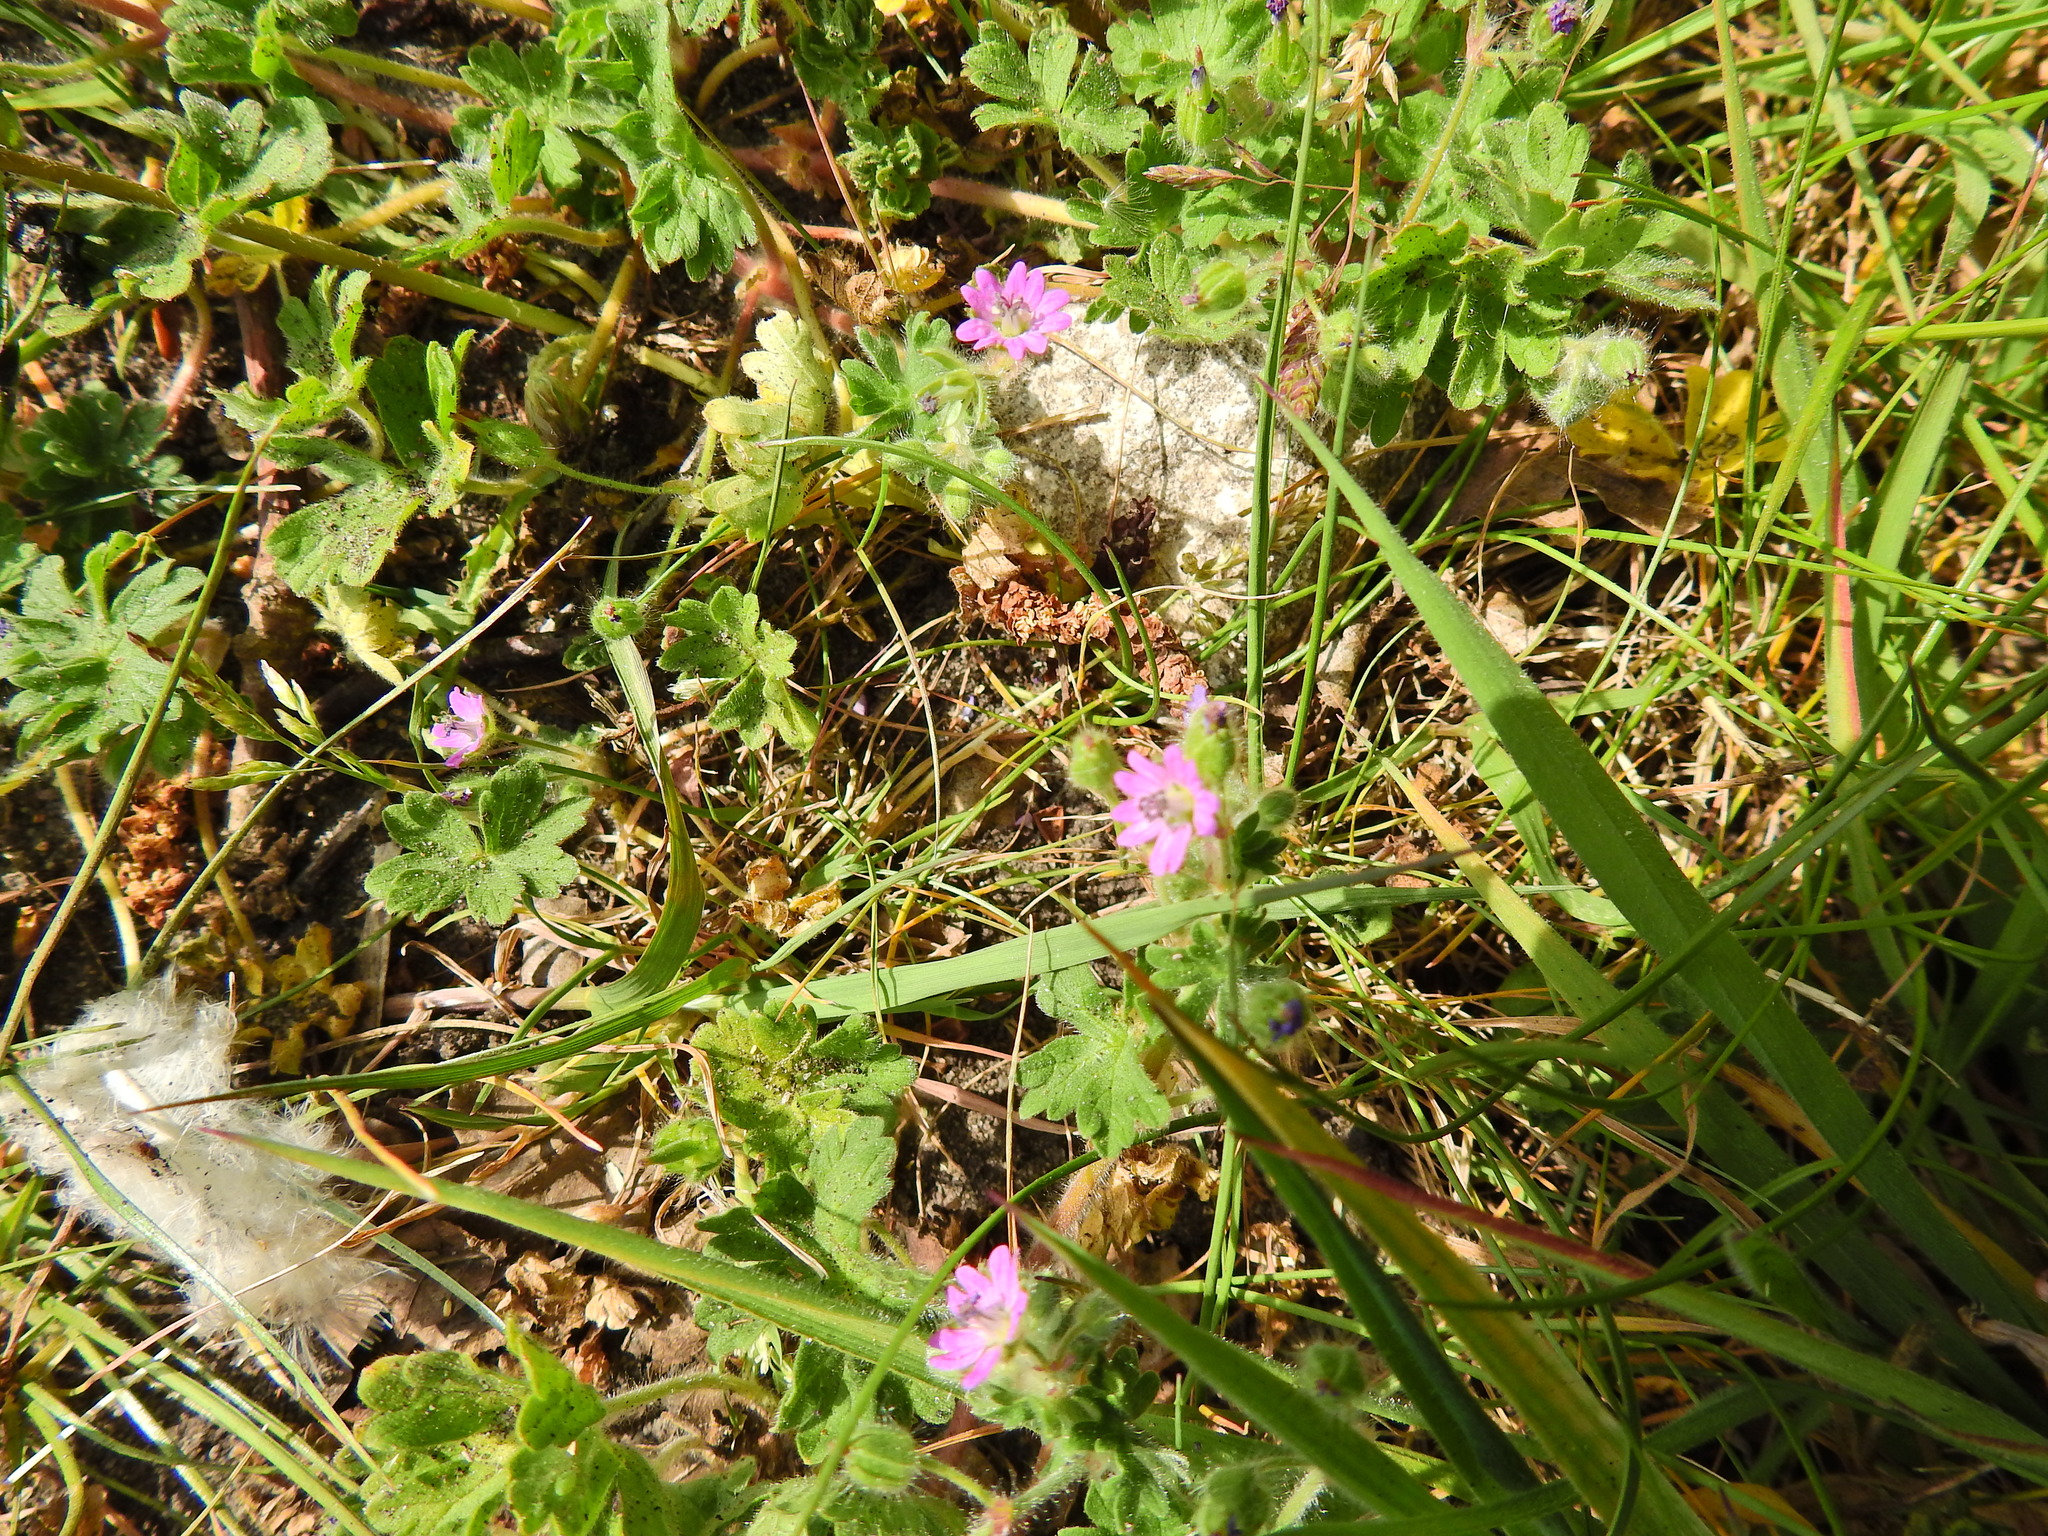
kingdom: Plantae
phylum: Tracheophyta
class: Magnoliopsida
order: Geraniales
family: Geraniaceae
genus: Geranium
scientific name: Geranium molle
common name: Dove's-foot crane's-bill
